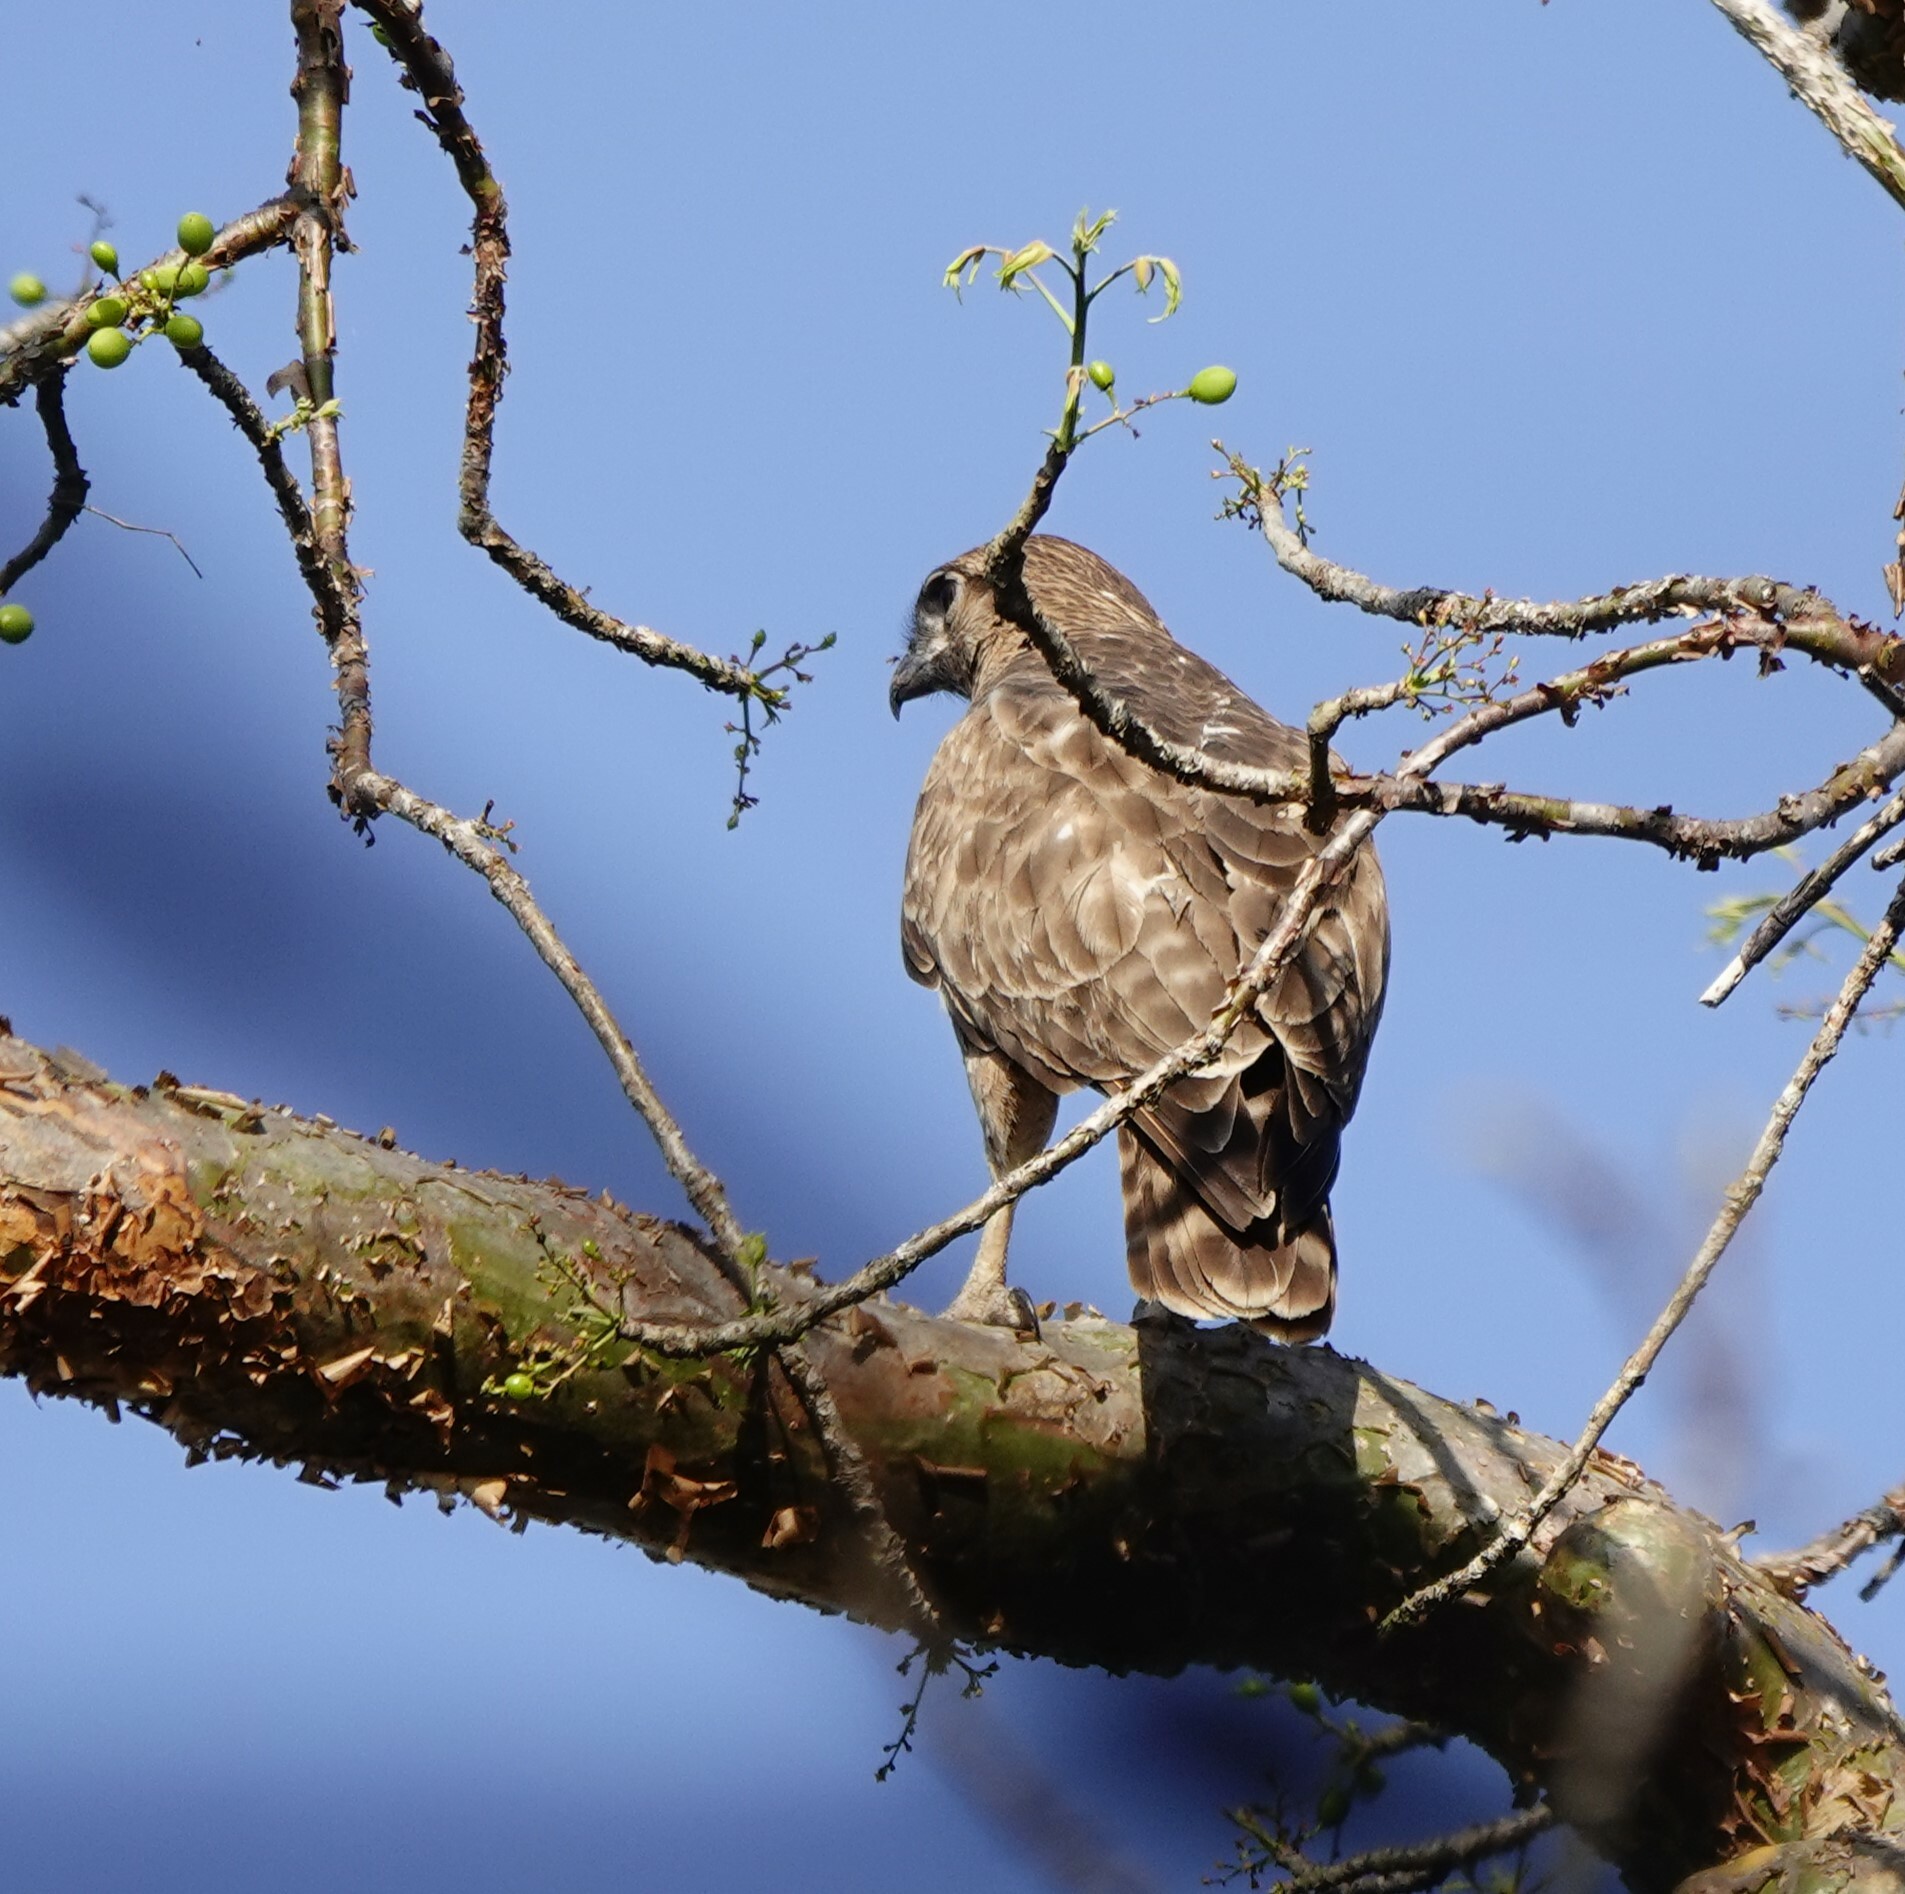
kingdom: Animalia
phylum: Chordata
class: Aves
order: Accipitriformes
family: Accipitridae
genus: Buteo
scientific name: Buteo brachypterus
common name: Madagascar buzzard
